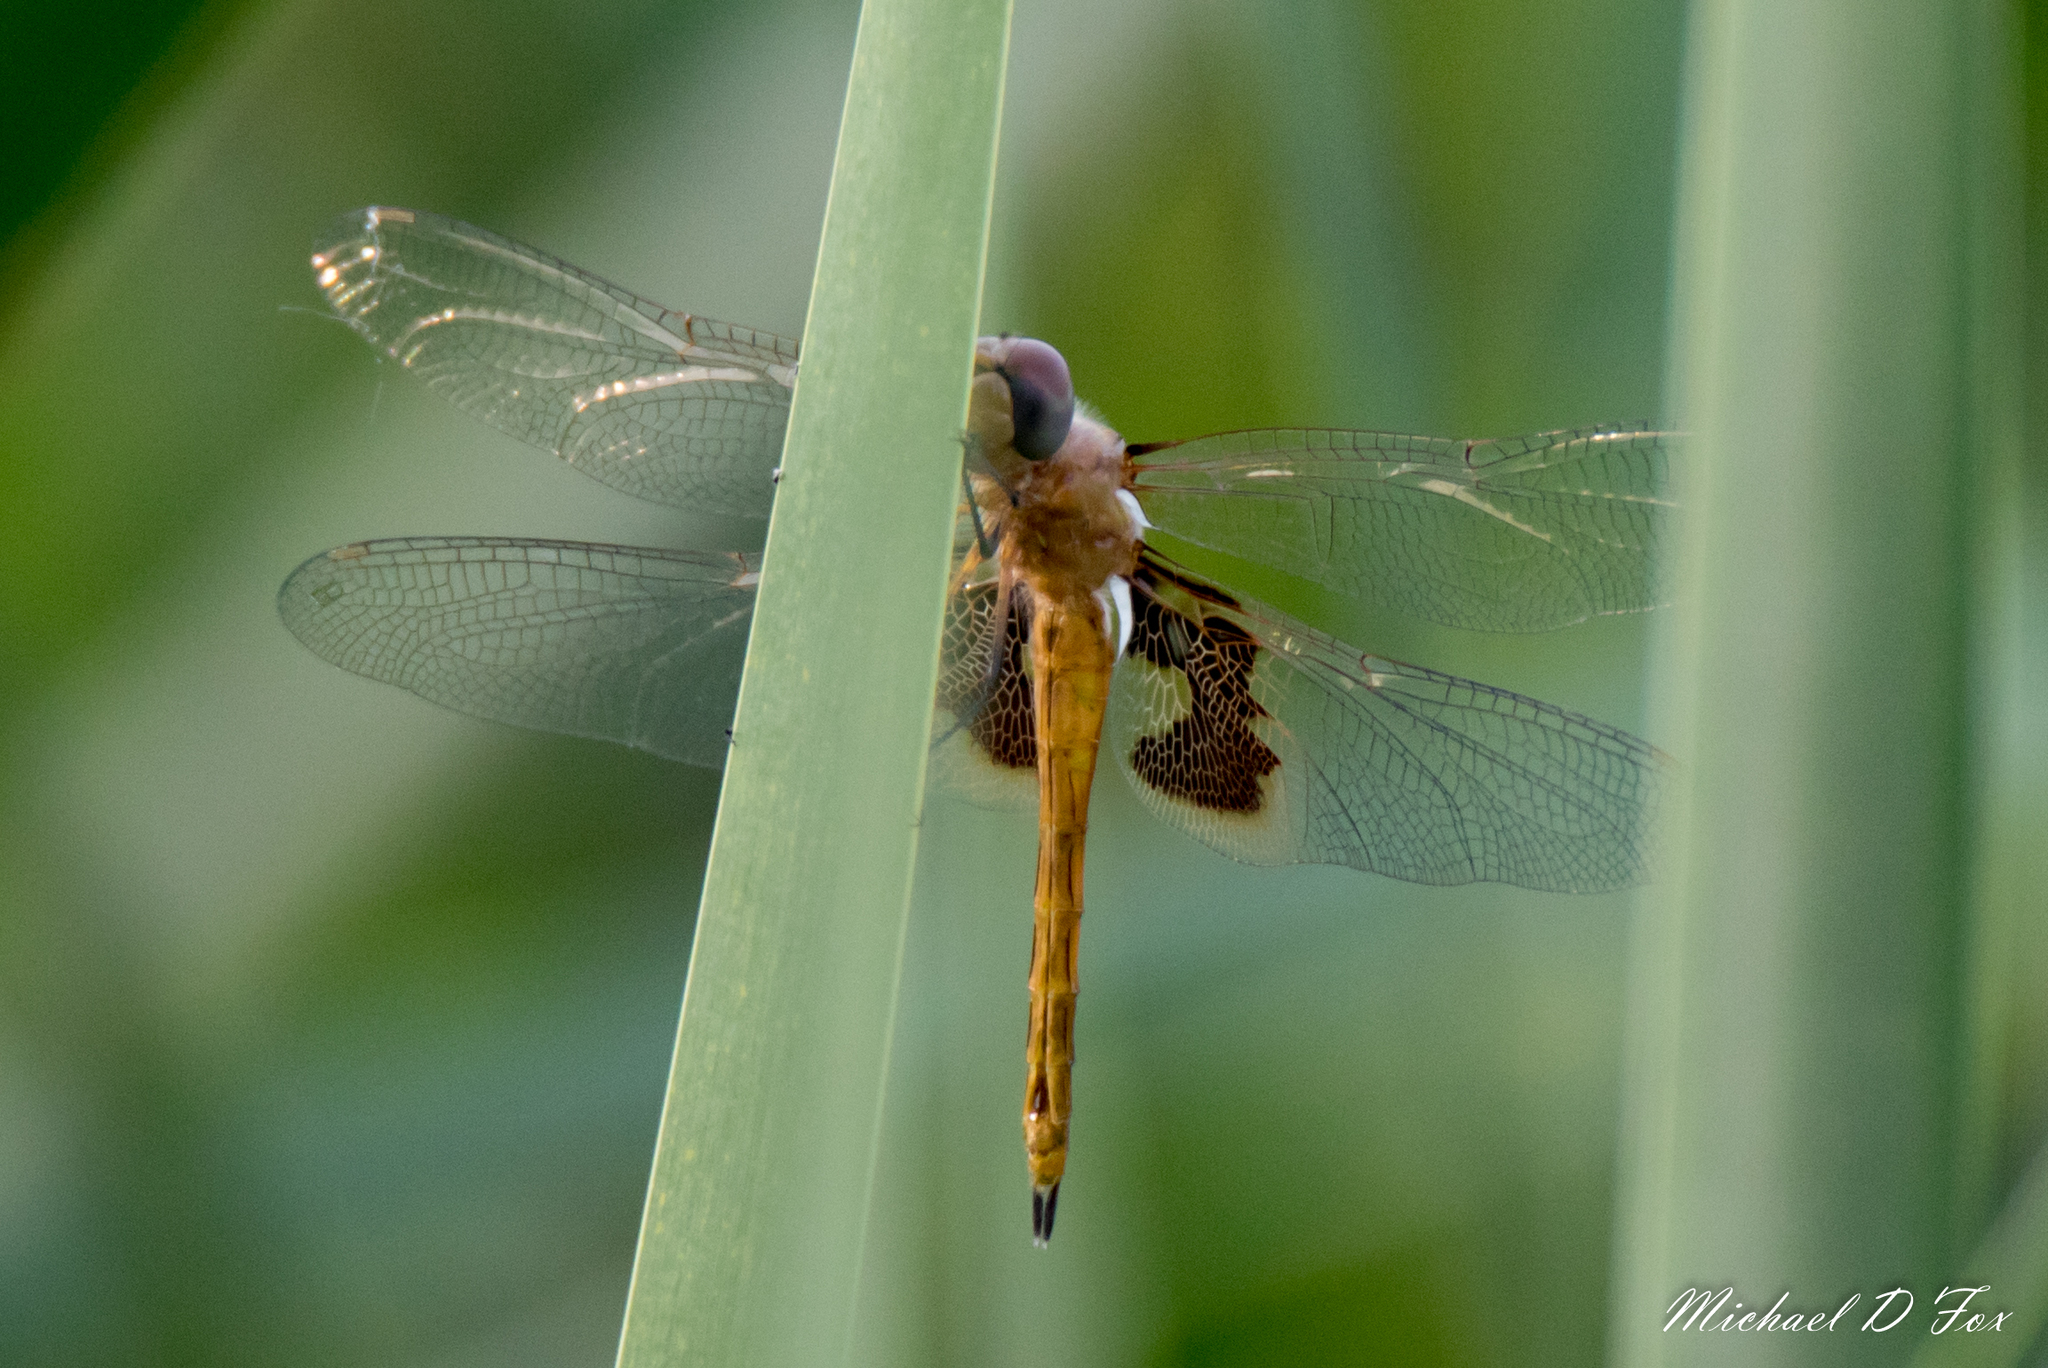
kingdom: Animalia
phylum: Arthropoda
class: Insecta
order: Odonata
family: Libellulidae
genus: Tramea
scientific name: Tramea onusta
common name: Red saddlebags
